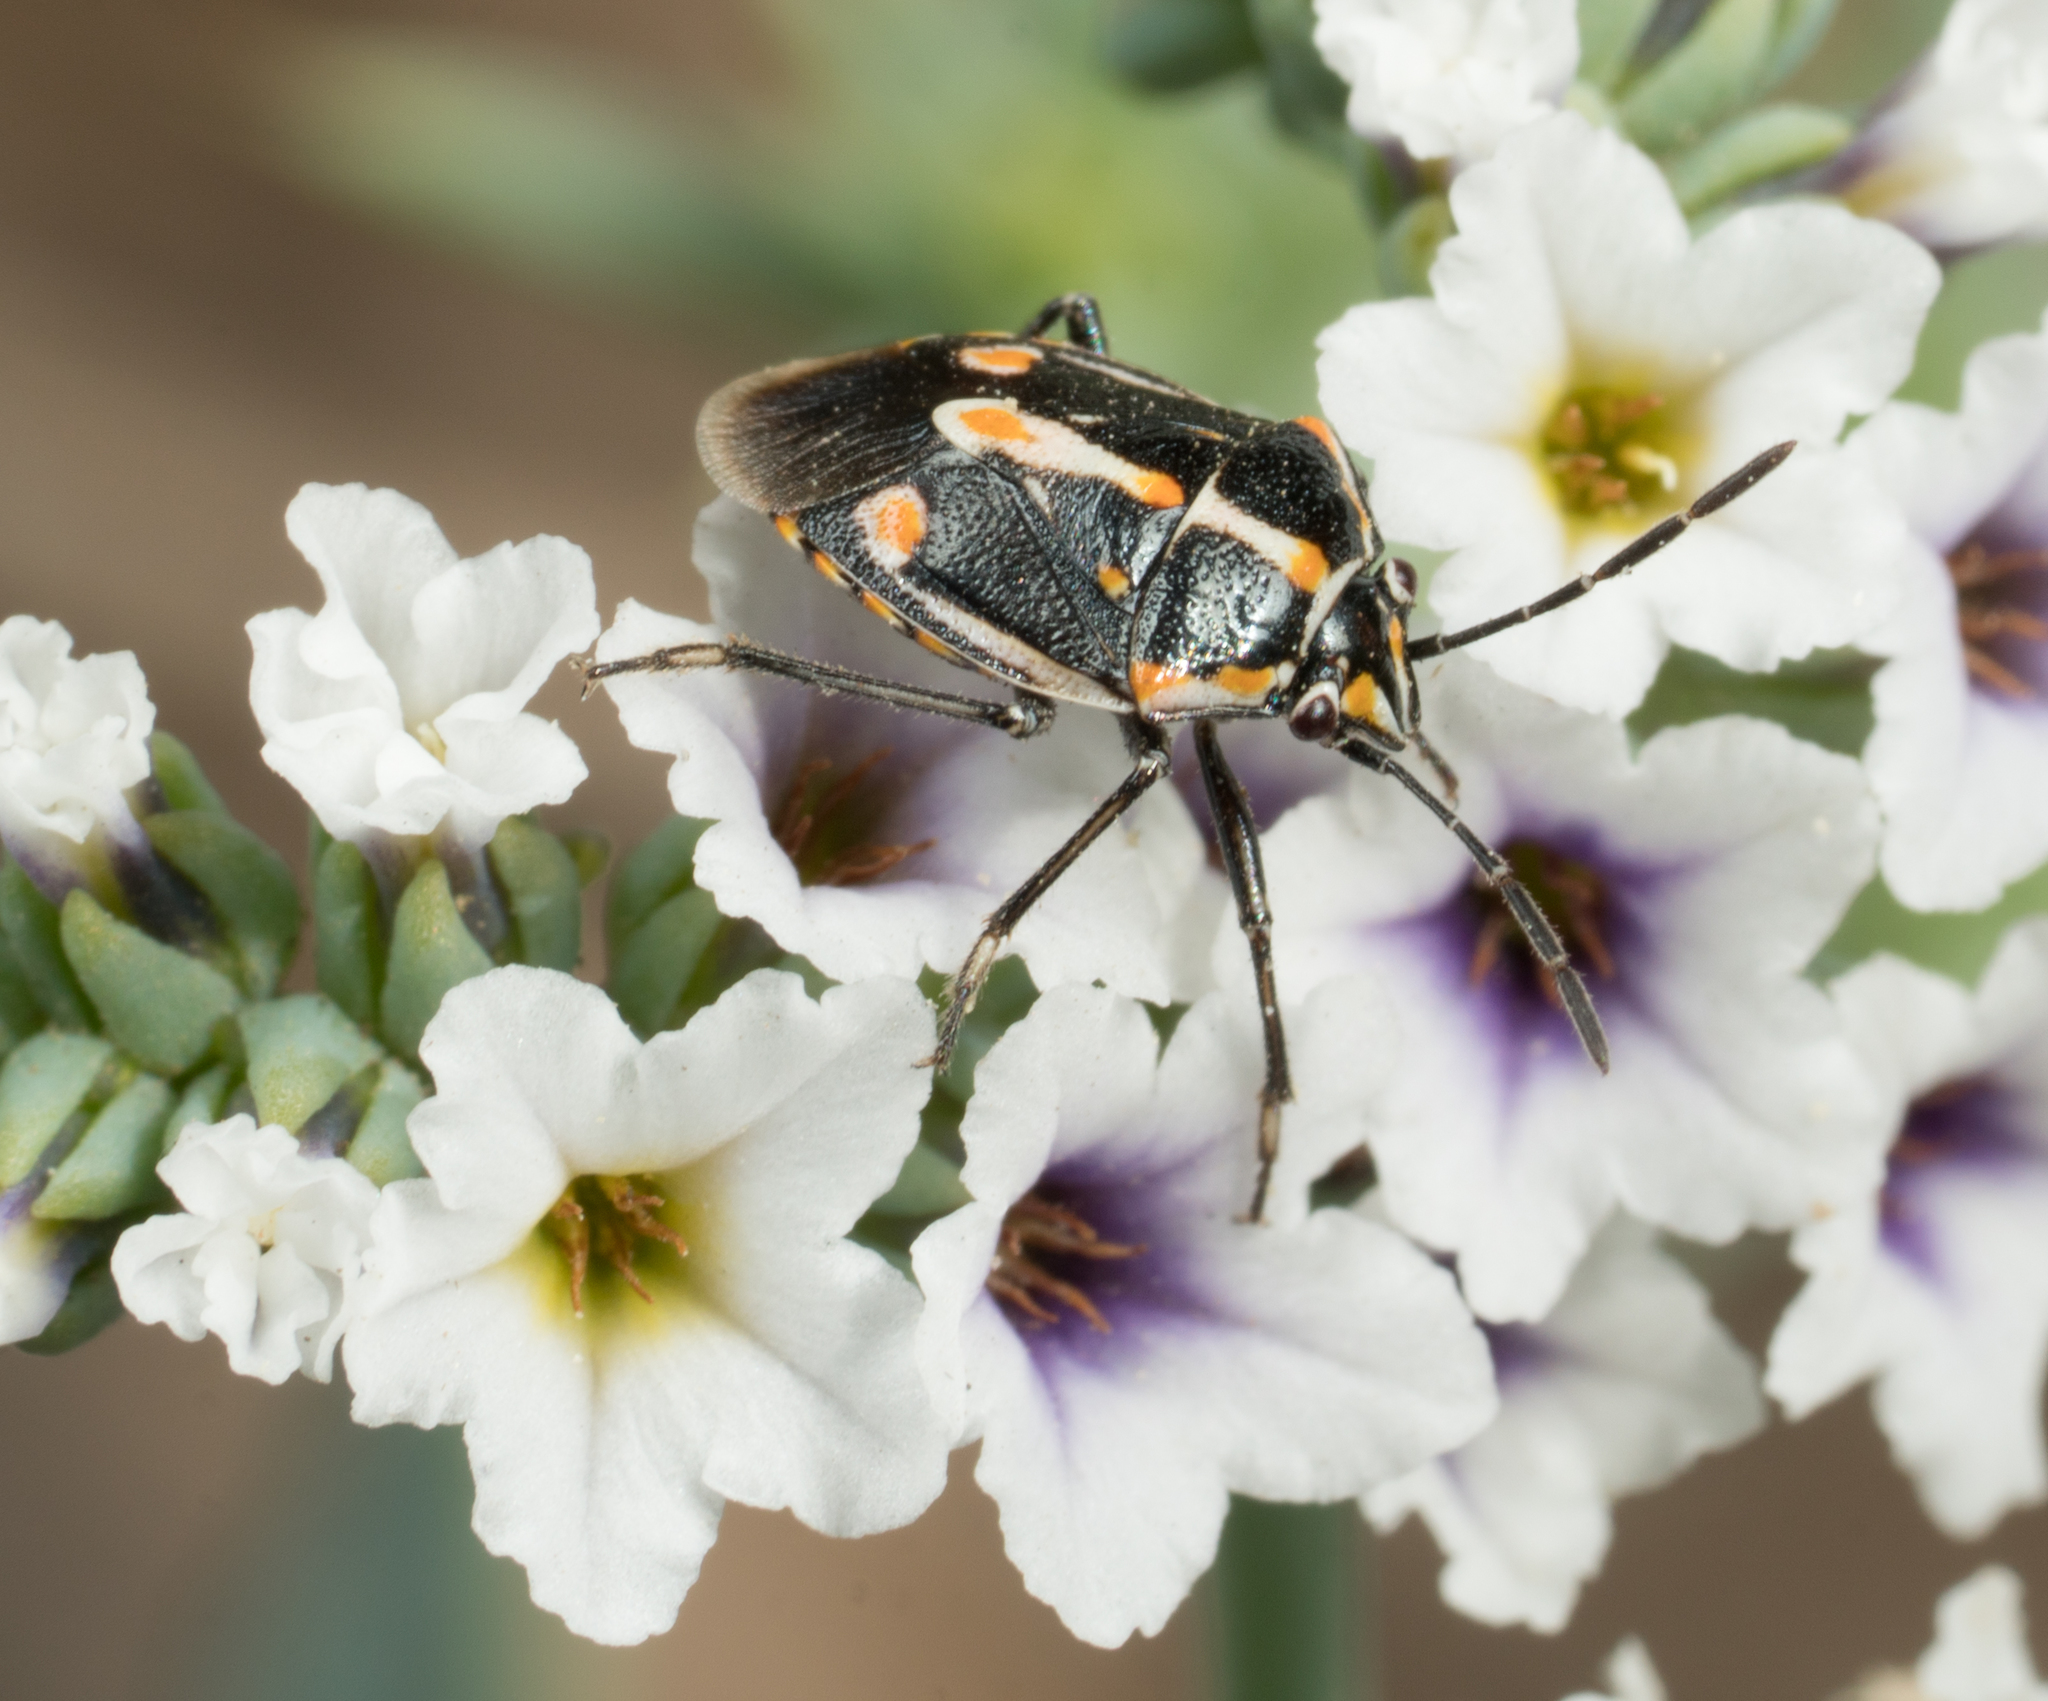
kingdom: Animalia
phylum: Arthropoda
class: Insecta
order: Hemiptera
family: Pentatomidae
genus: Bagrada
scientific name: Bagrada hilaris
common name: Bagrada bug
